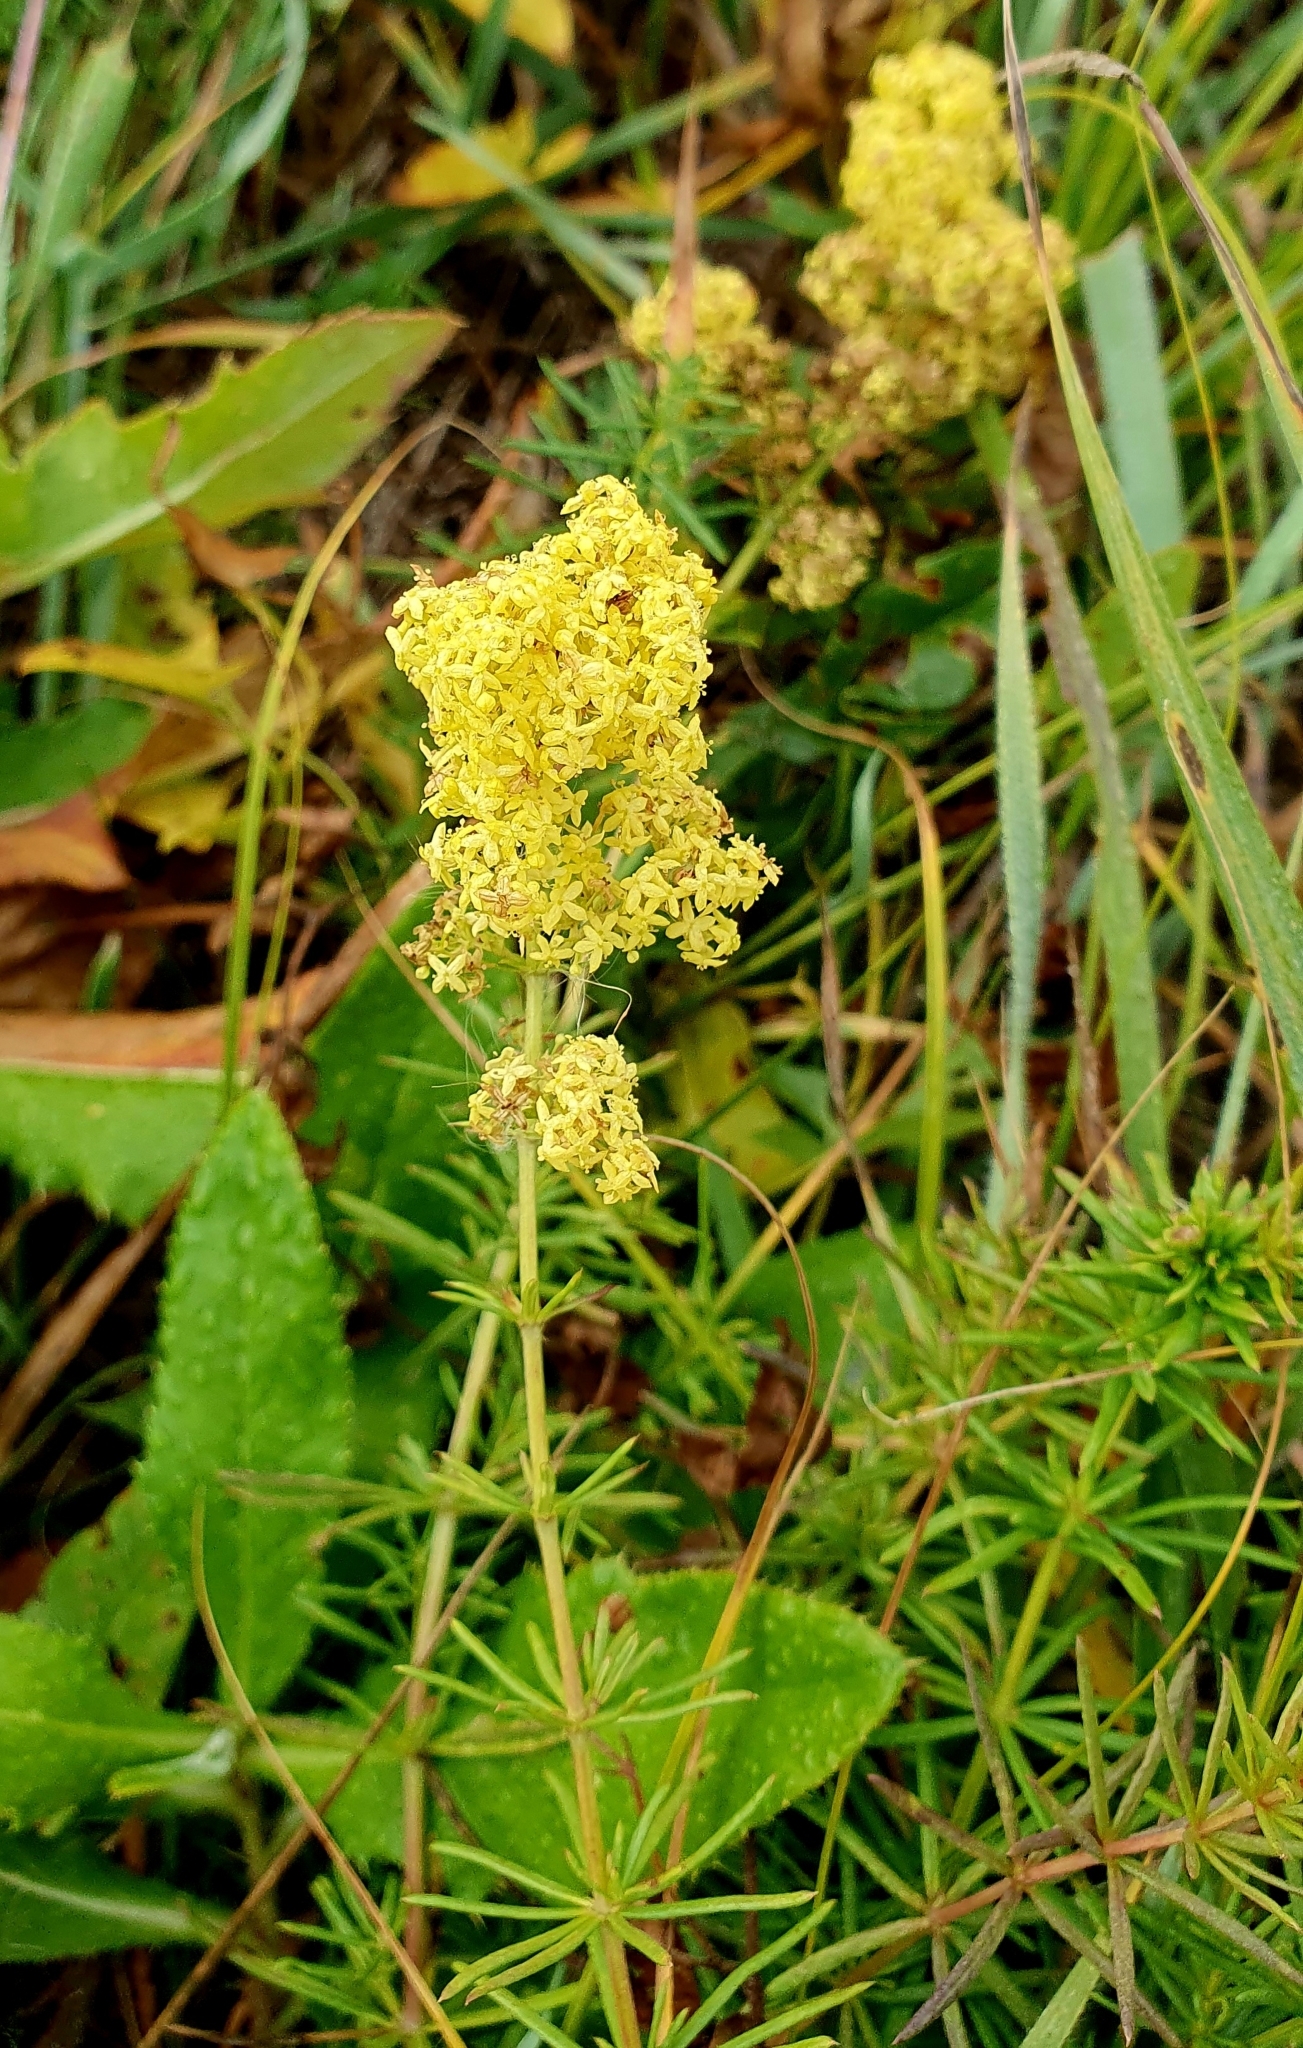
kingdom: Plantae
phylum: Tracheophyta
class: Magnoliopsida
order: Gentianales
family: Rubiaceae
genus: Galium
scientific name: Galium verum
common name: Lady's bedstraw
